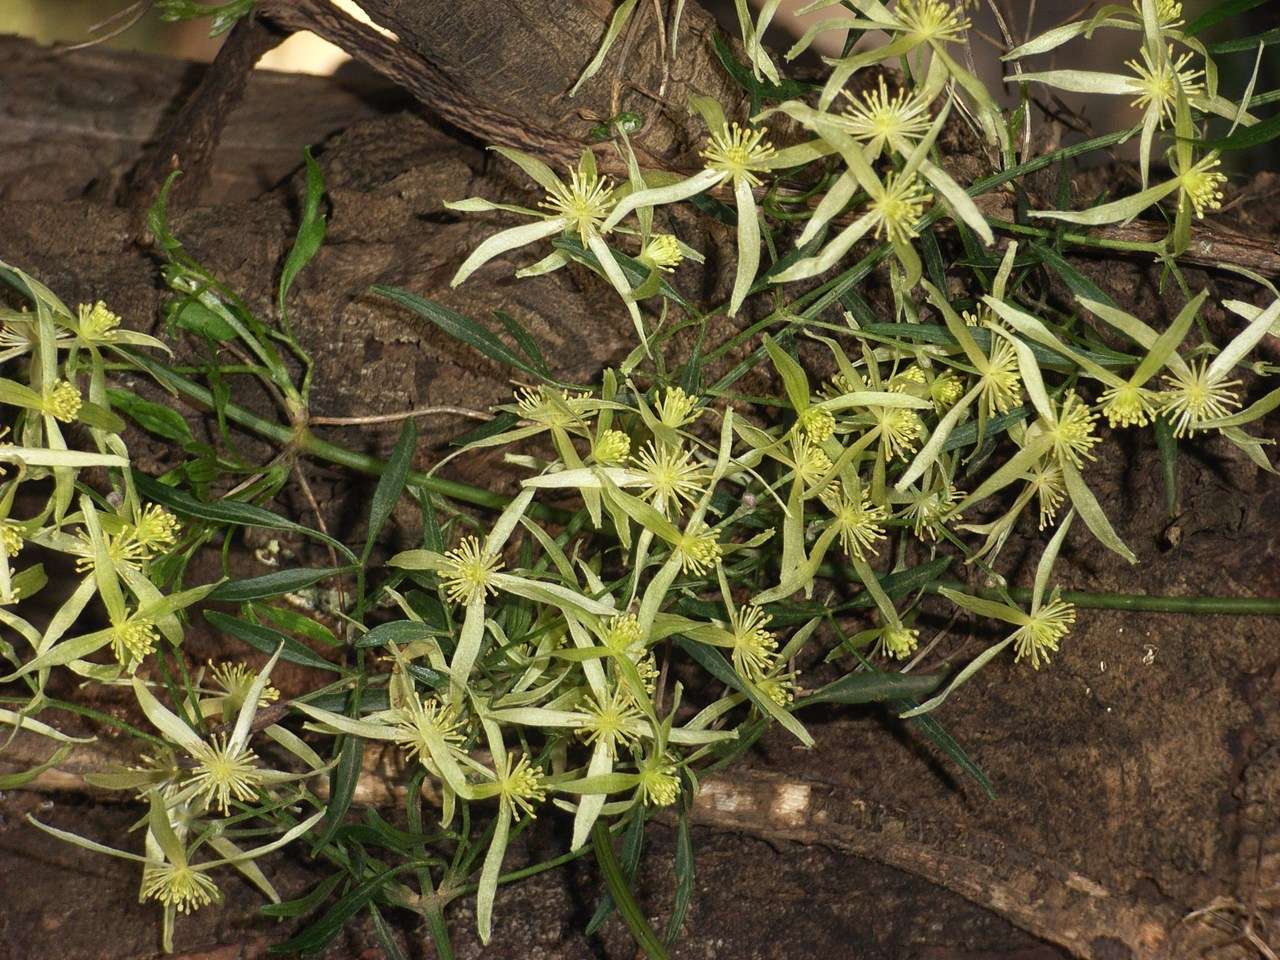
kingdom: Plantae
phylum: Tracheophyta
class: Magnoliopsida
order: Ranunculales
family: Ranunculaceae
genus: Clematis
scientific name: Clematis microphylla
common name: Headachevine
